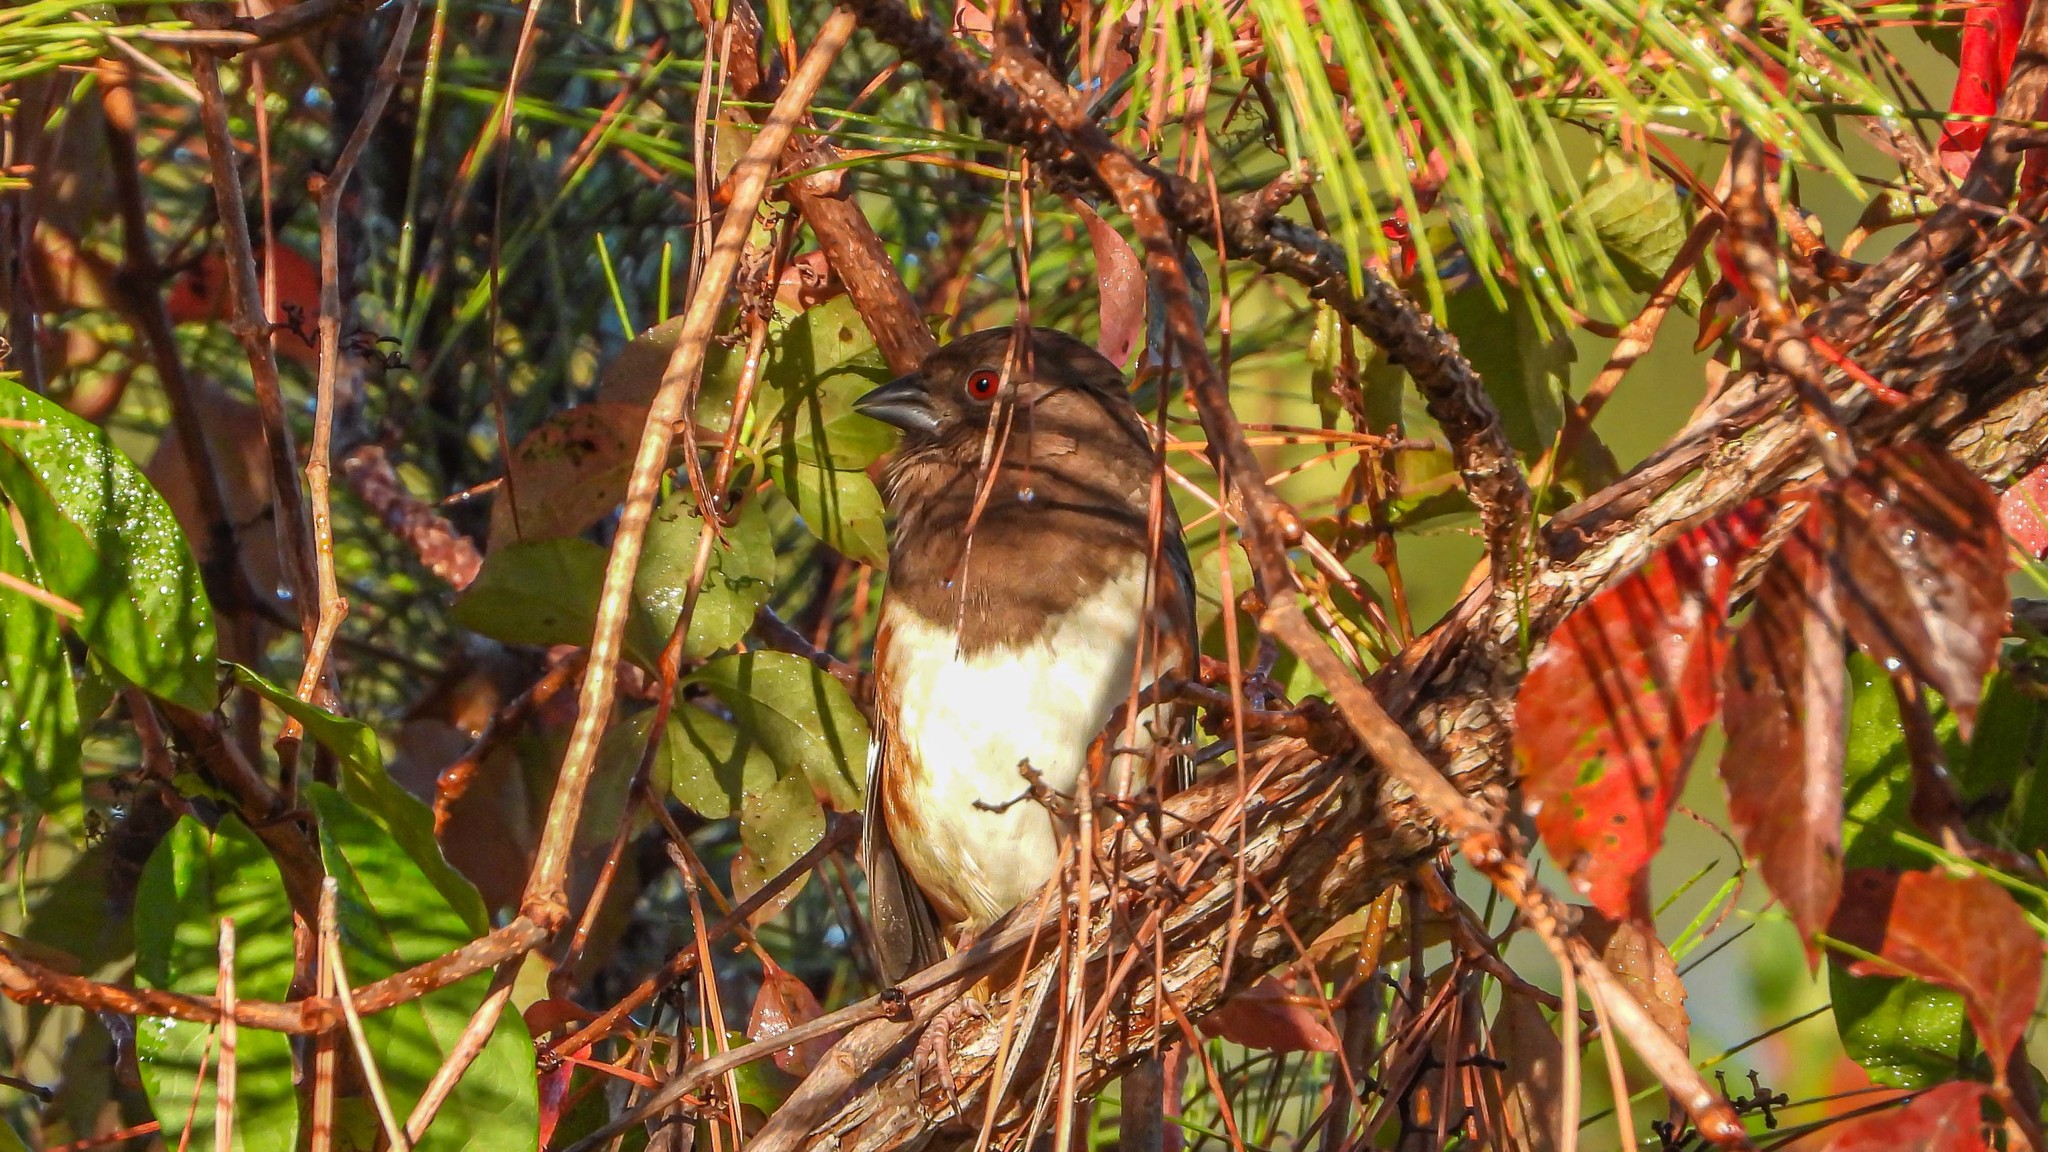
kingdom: Animalia
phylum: Chordata
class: Aves
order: Passeriformes
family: Passerellidae
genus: Pipilo
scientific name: Pipilo erythrophthalmus
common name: Eastern towhee
